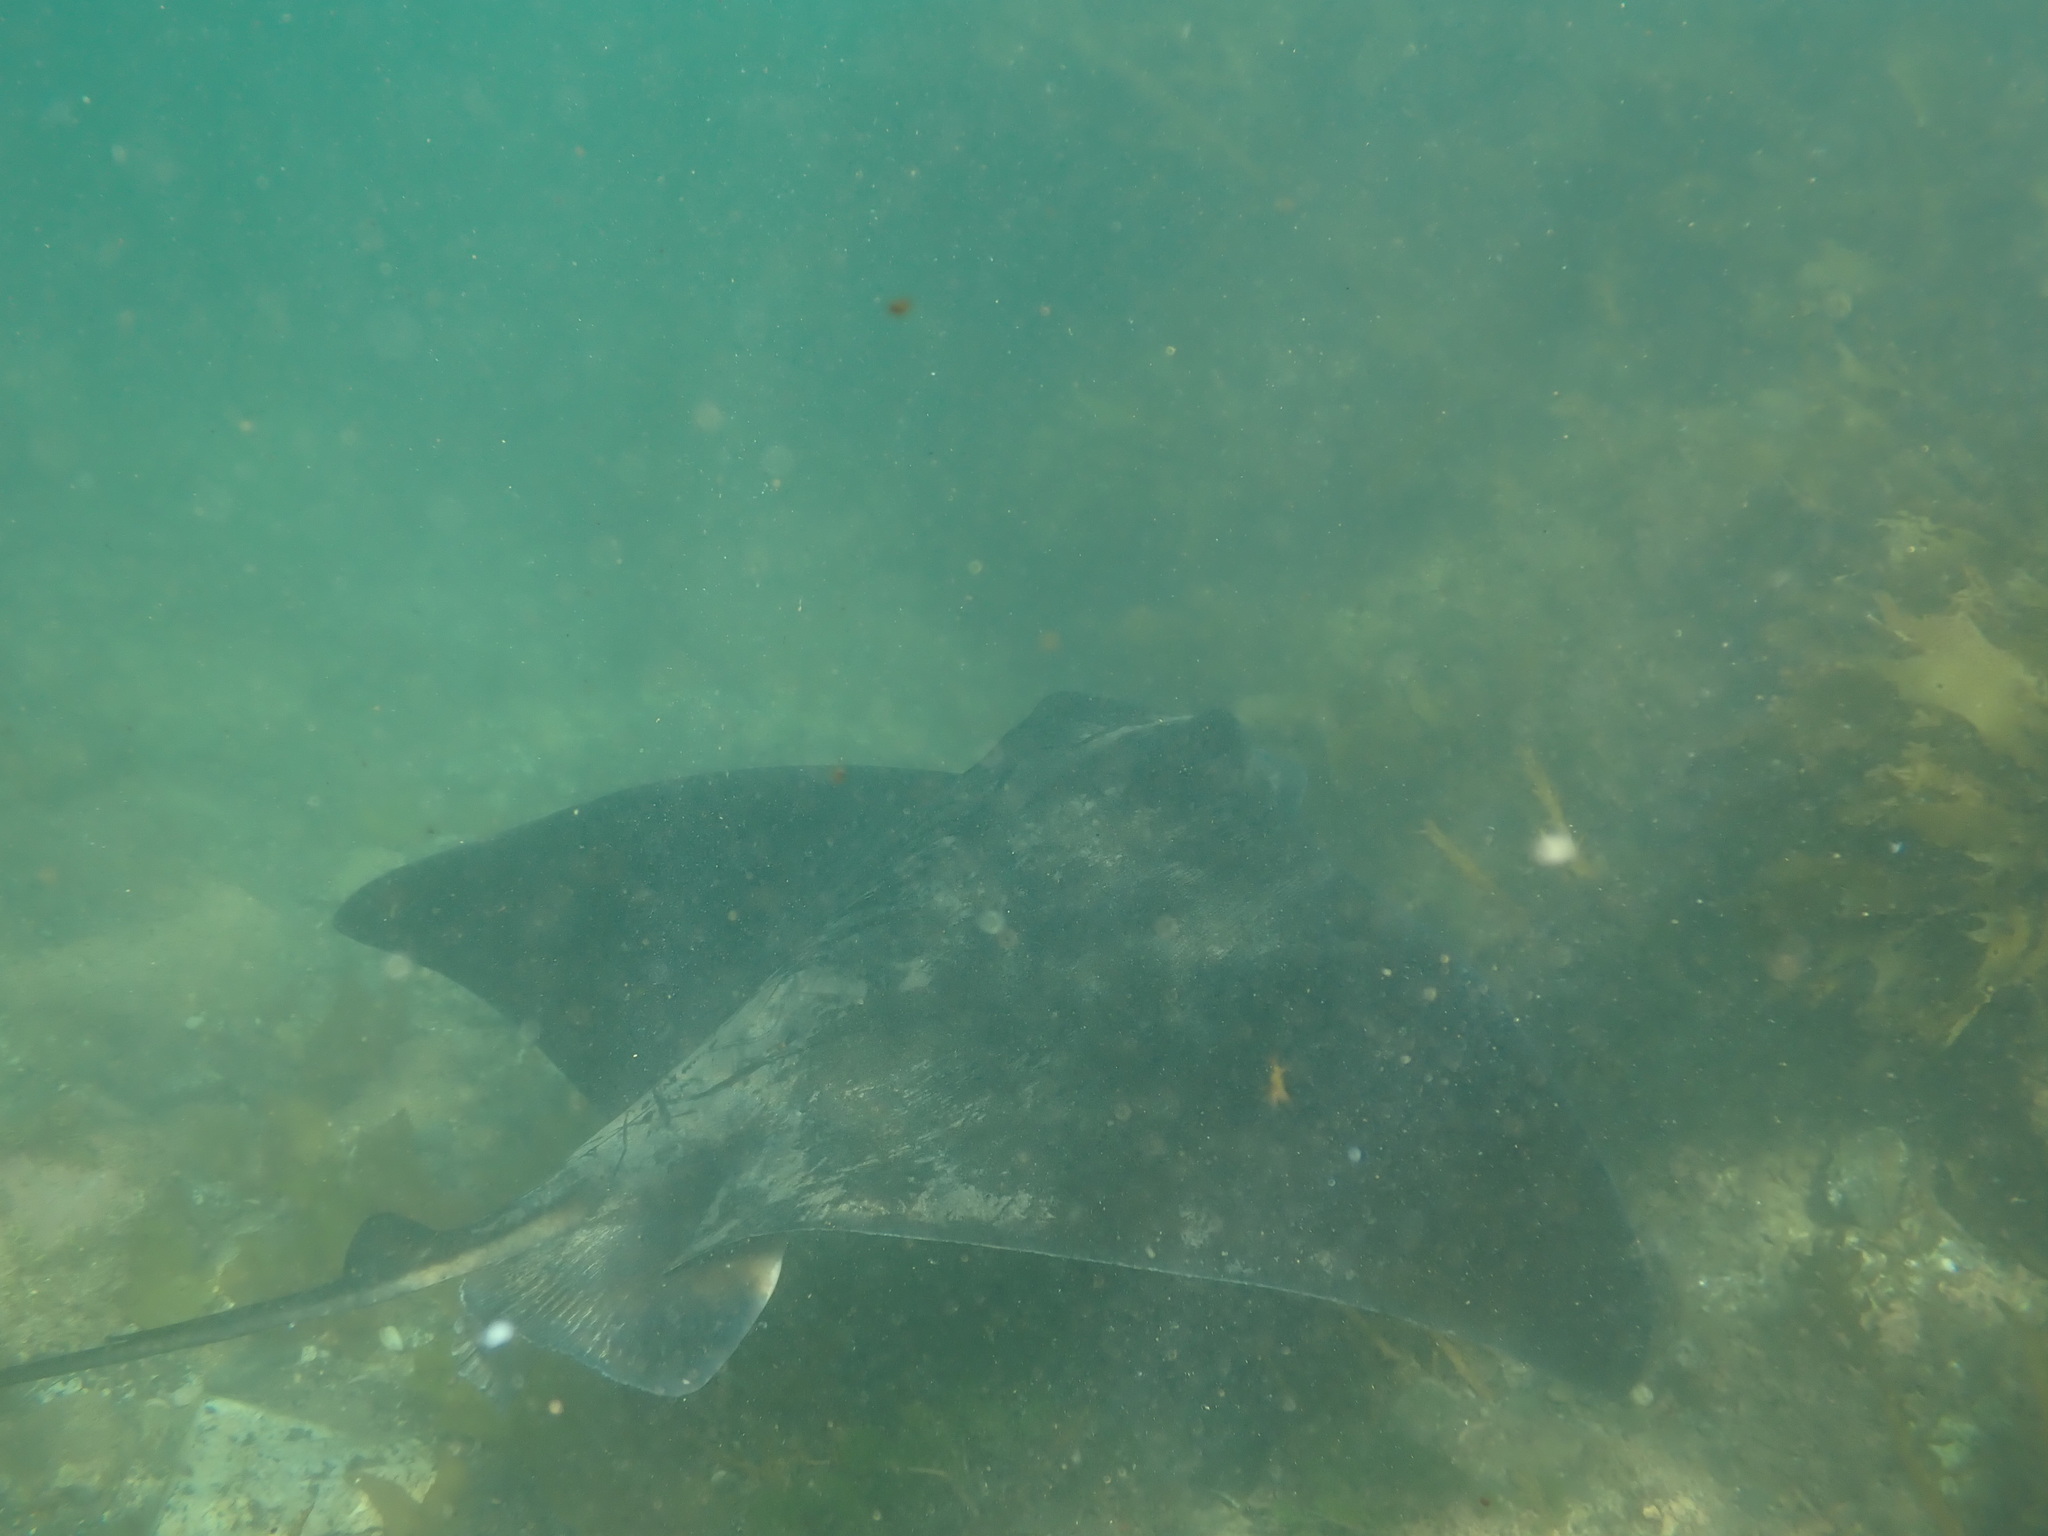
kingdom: Animalia
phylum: Chordata
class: Elasmobranchii
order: Myliobatiformes
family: Myliobatidae
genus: Myliobatis
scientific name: Myliobatis tenuicaudatus
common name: Eagle ray
